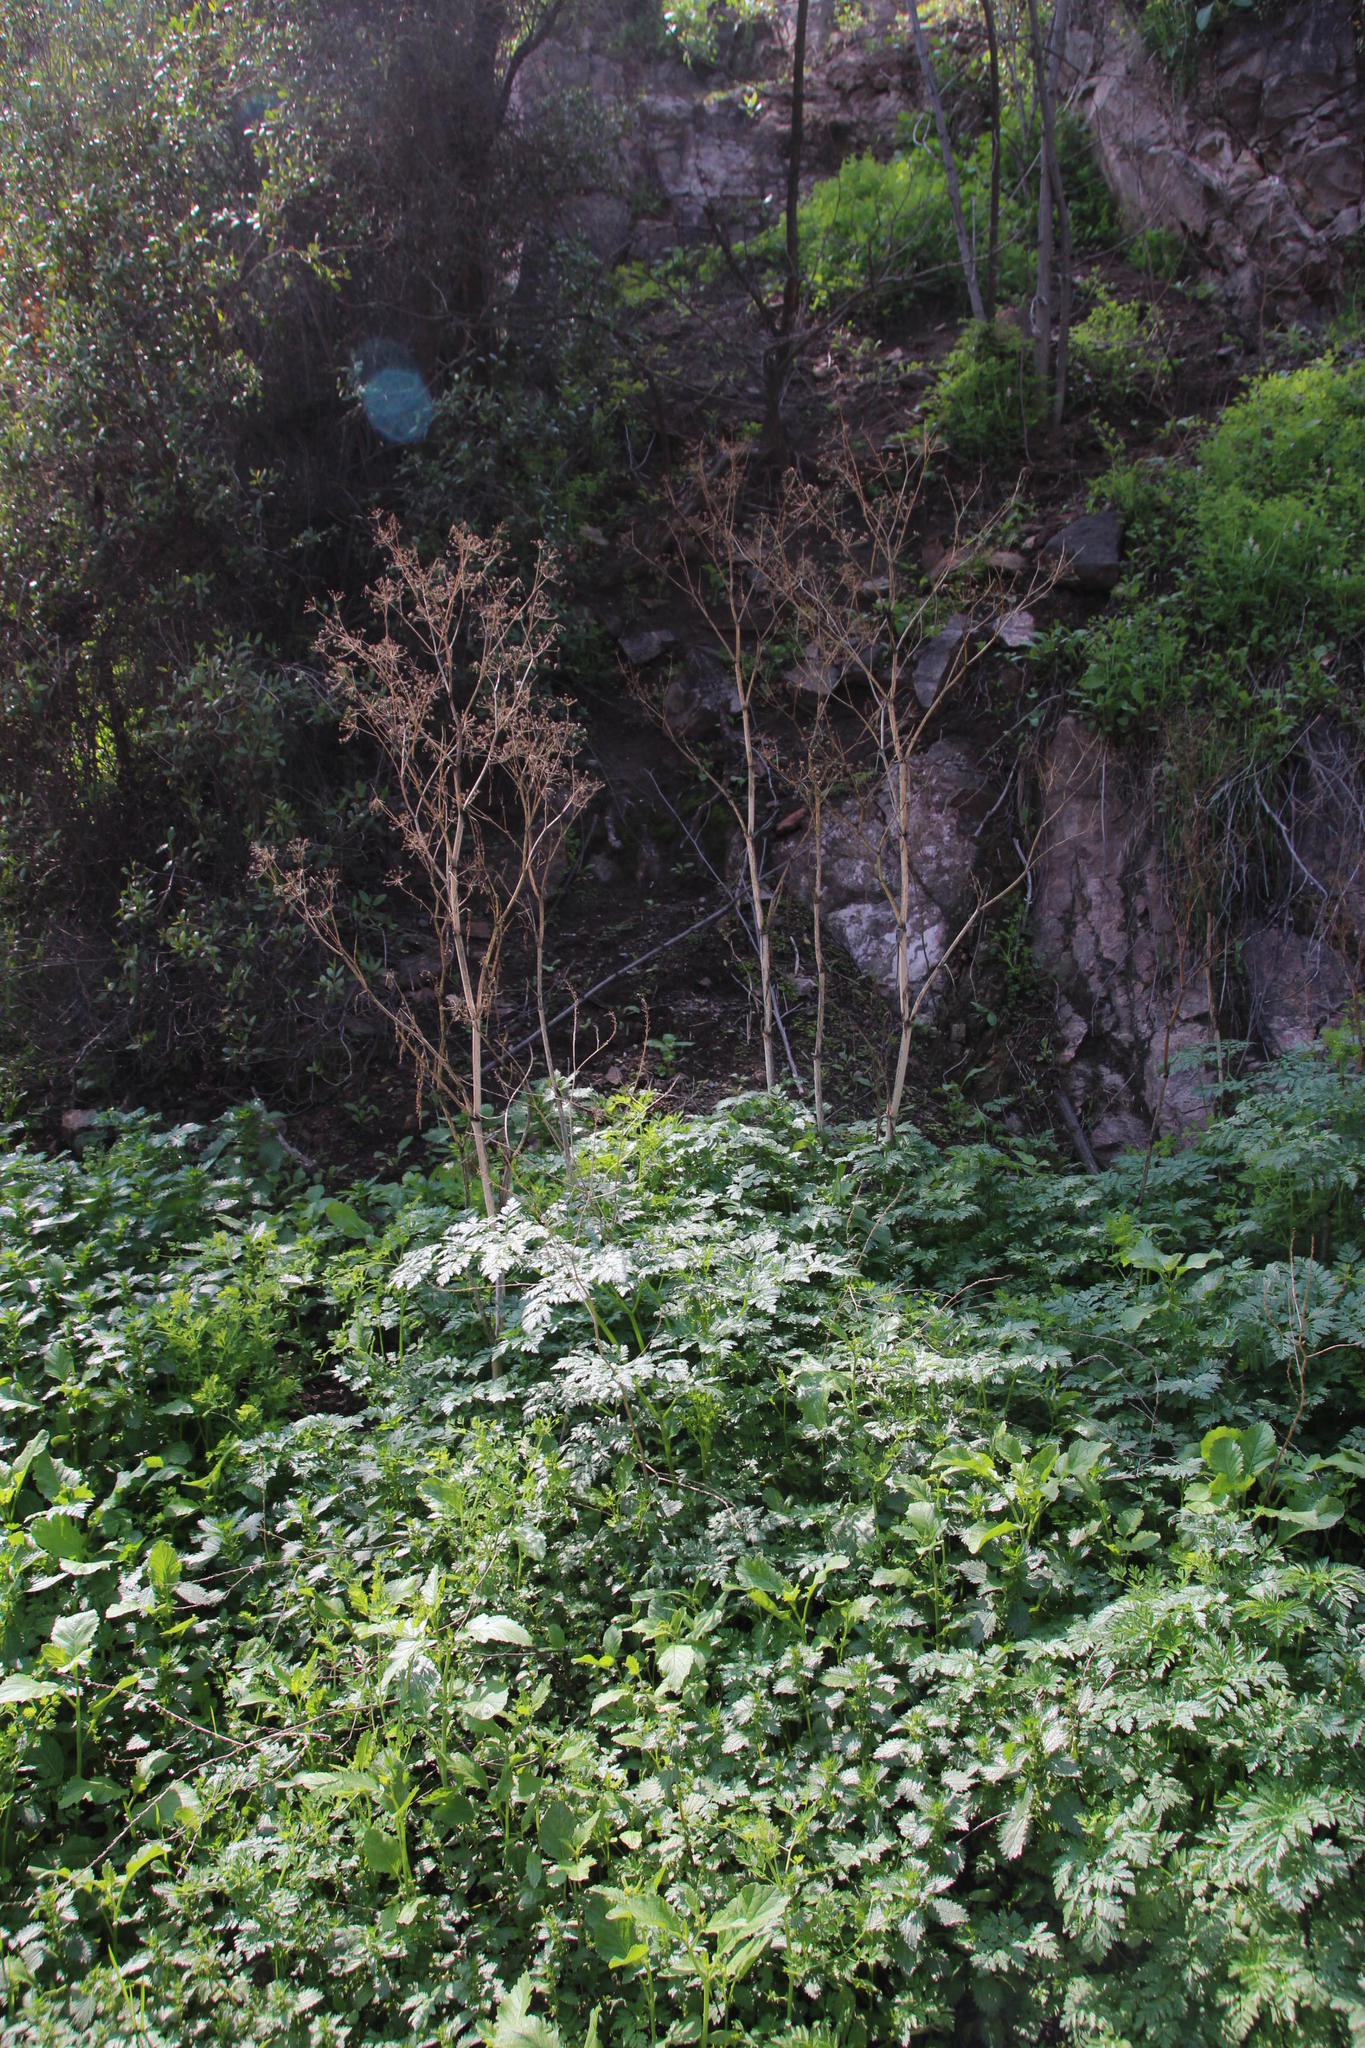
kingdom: Plantae
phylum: Tracheophyta
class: Magnoliopsida
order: Apiales
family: Apiaceae
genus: Anthriscus
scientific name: Anthriscus sylvestris
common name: Cow parsley
